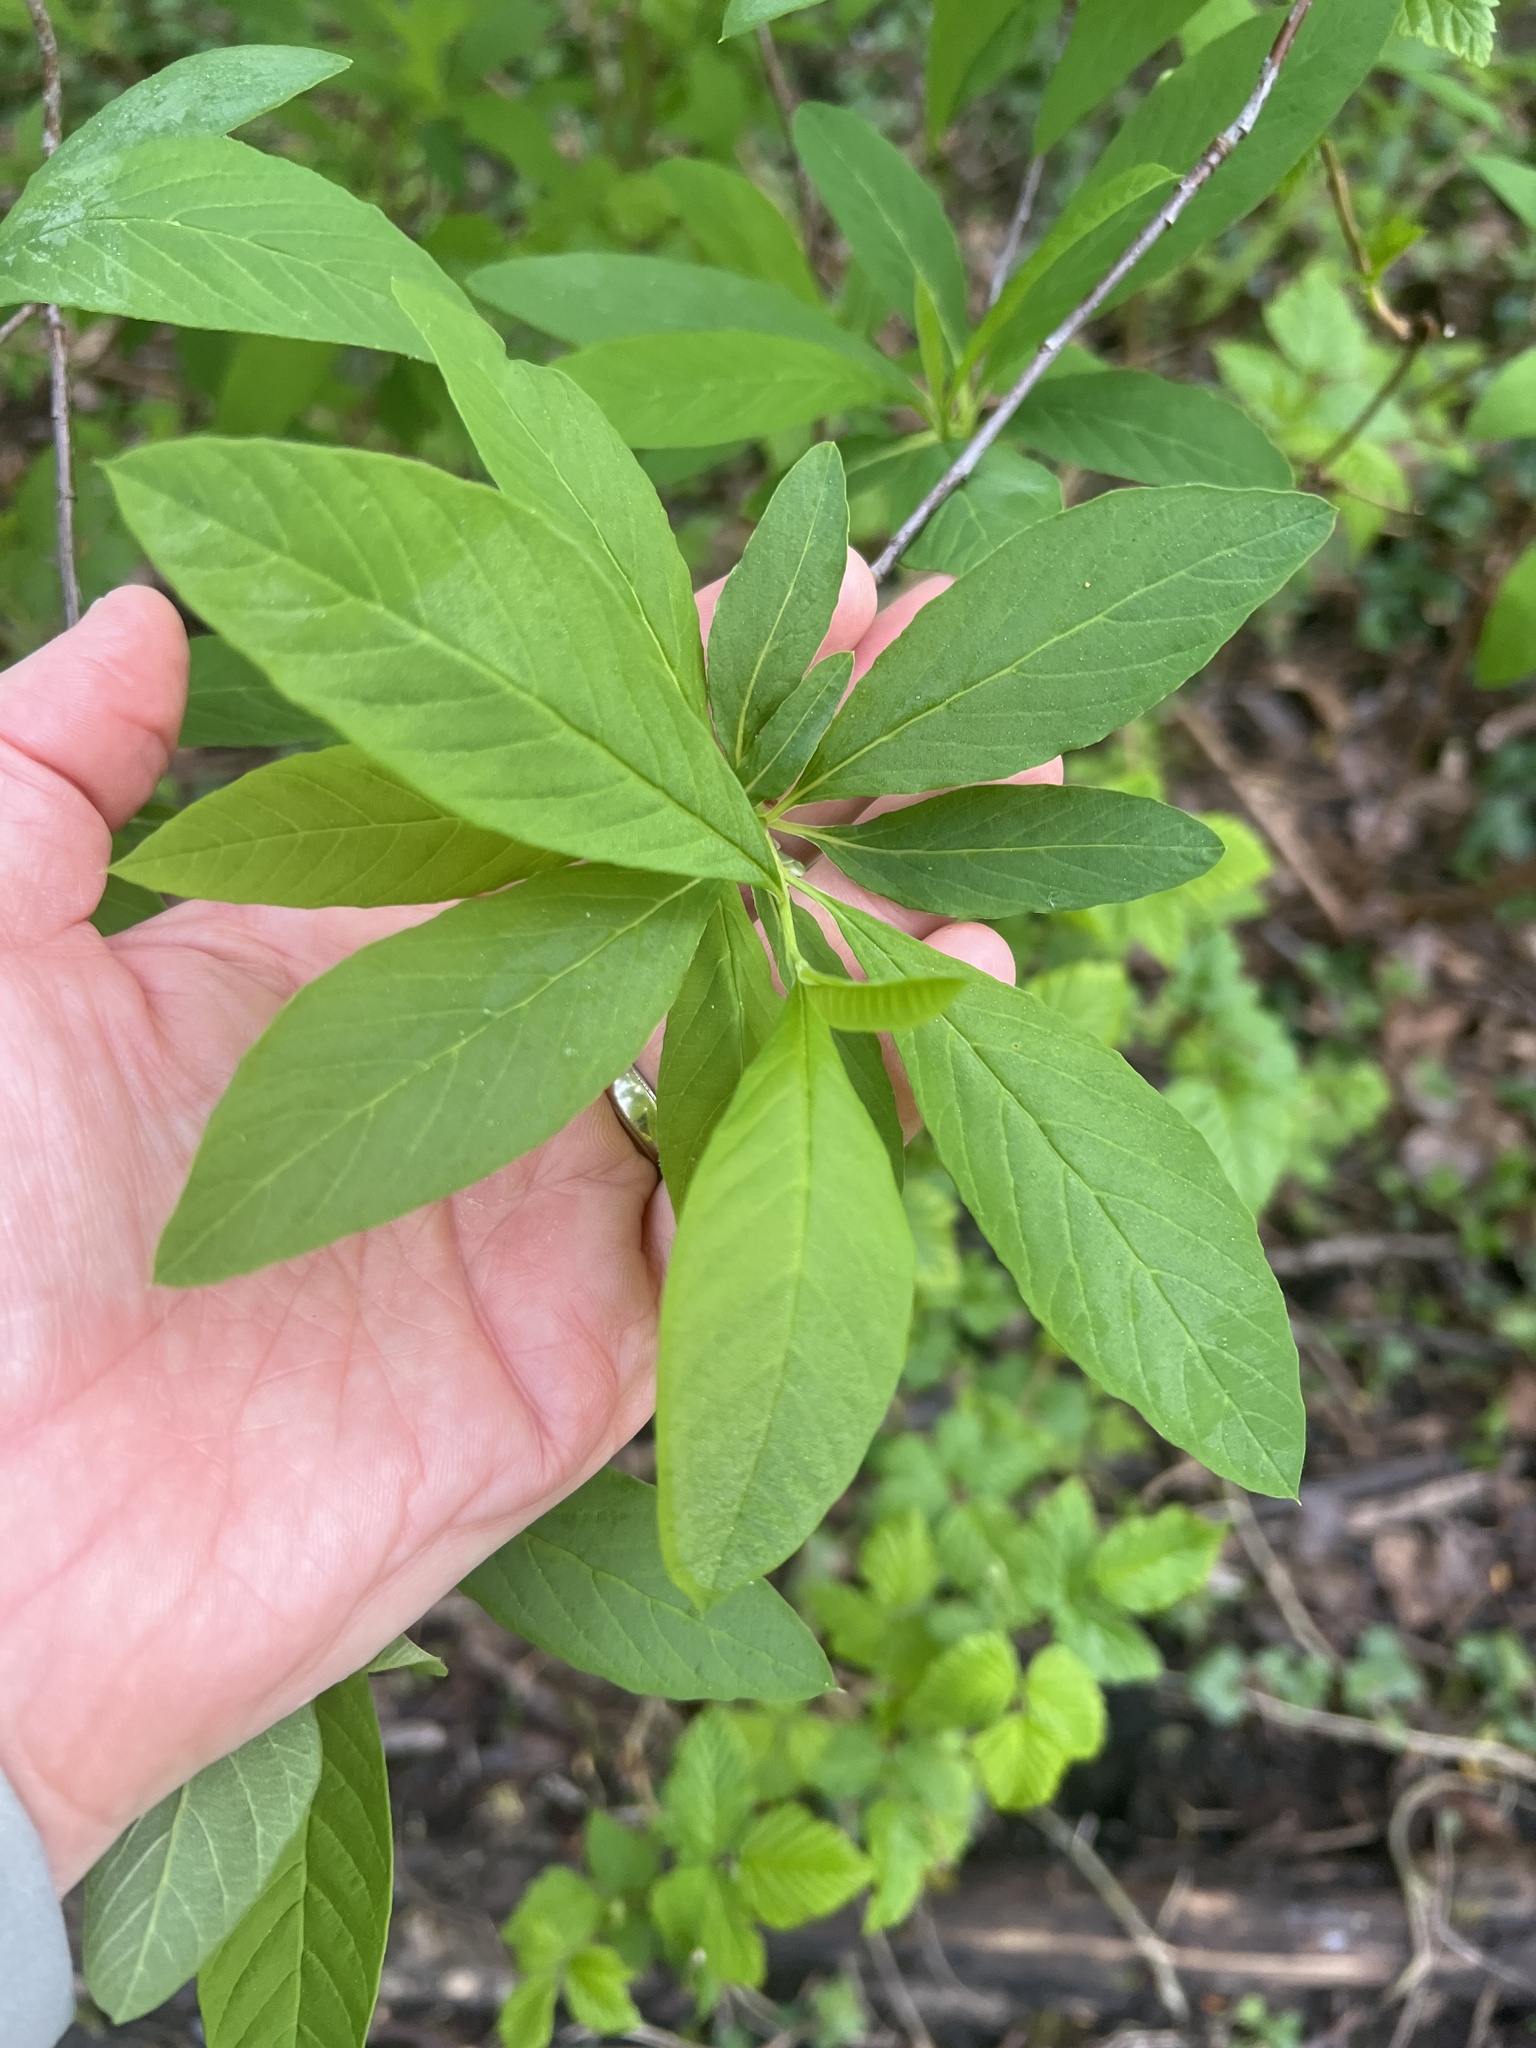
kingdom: Plantae
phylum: Tracheophyta
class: Magnoliopsida
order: Rosales
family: Rosaceae
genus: Oemleria
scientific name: Oemleria cerasiformis
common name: Osoberry
